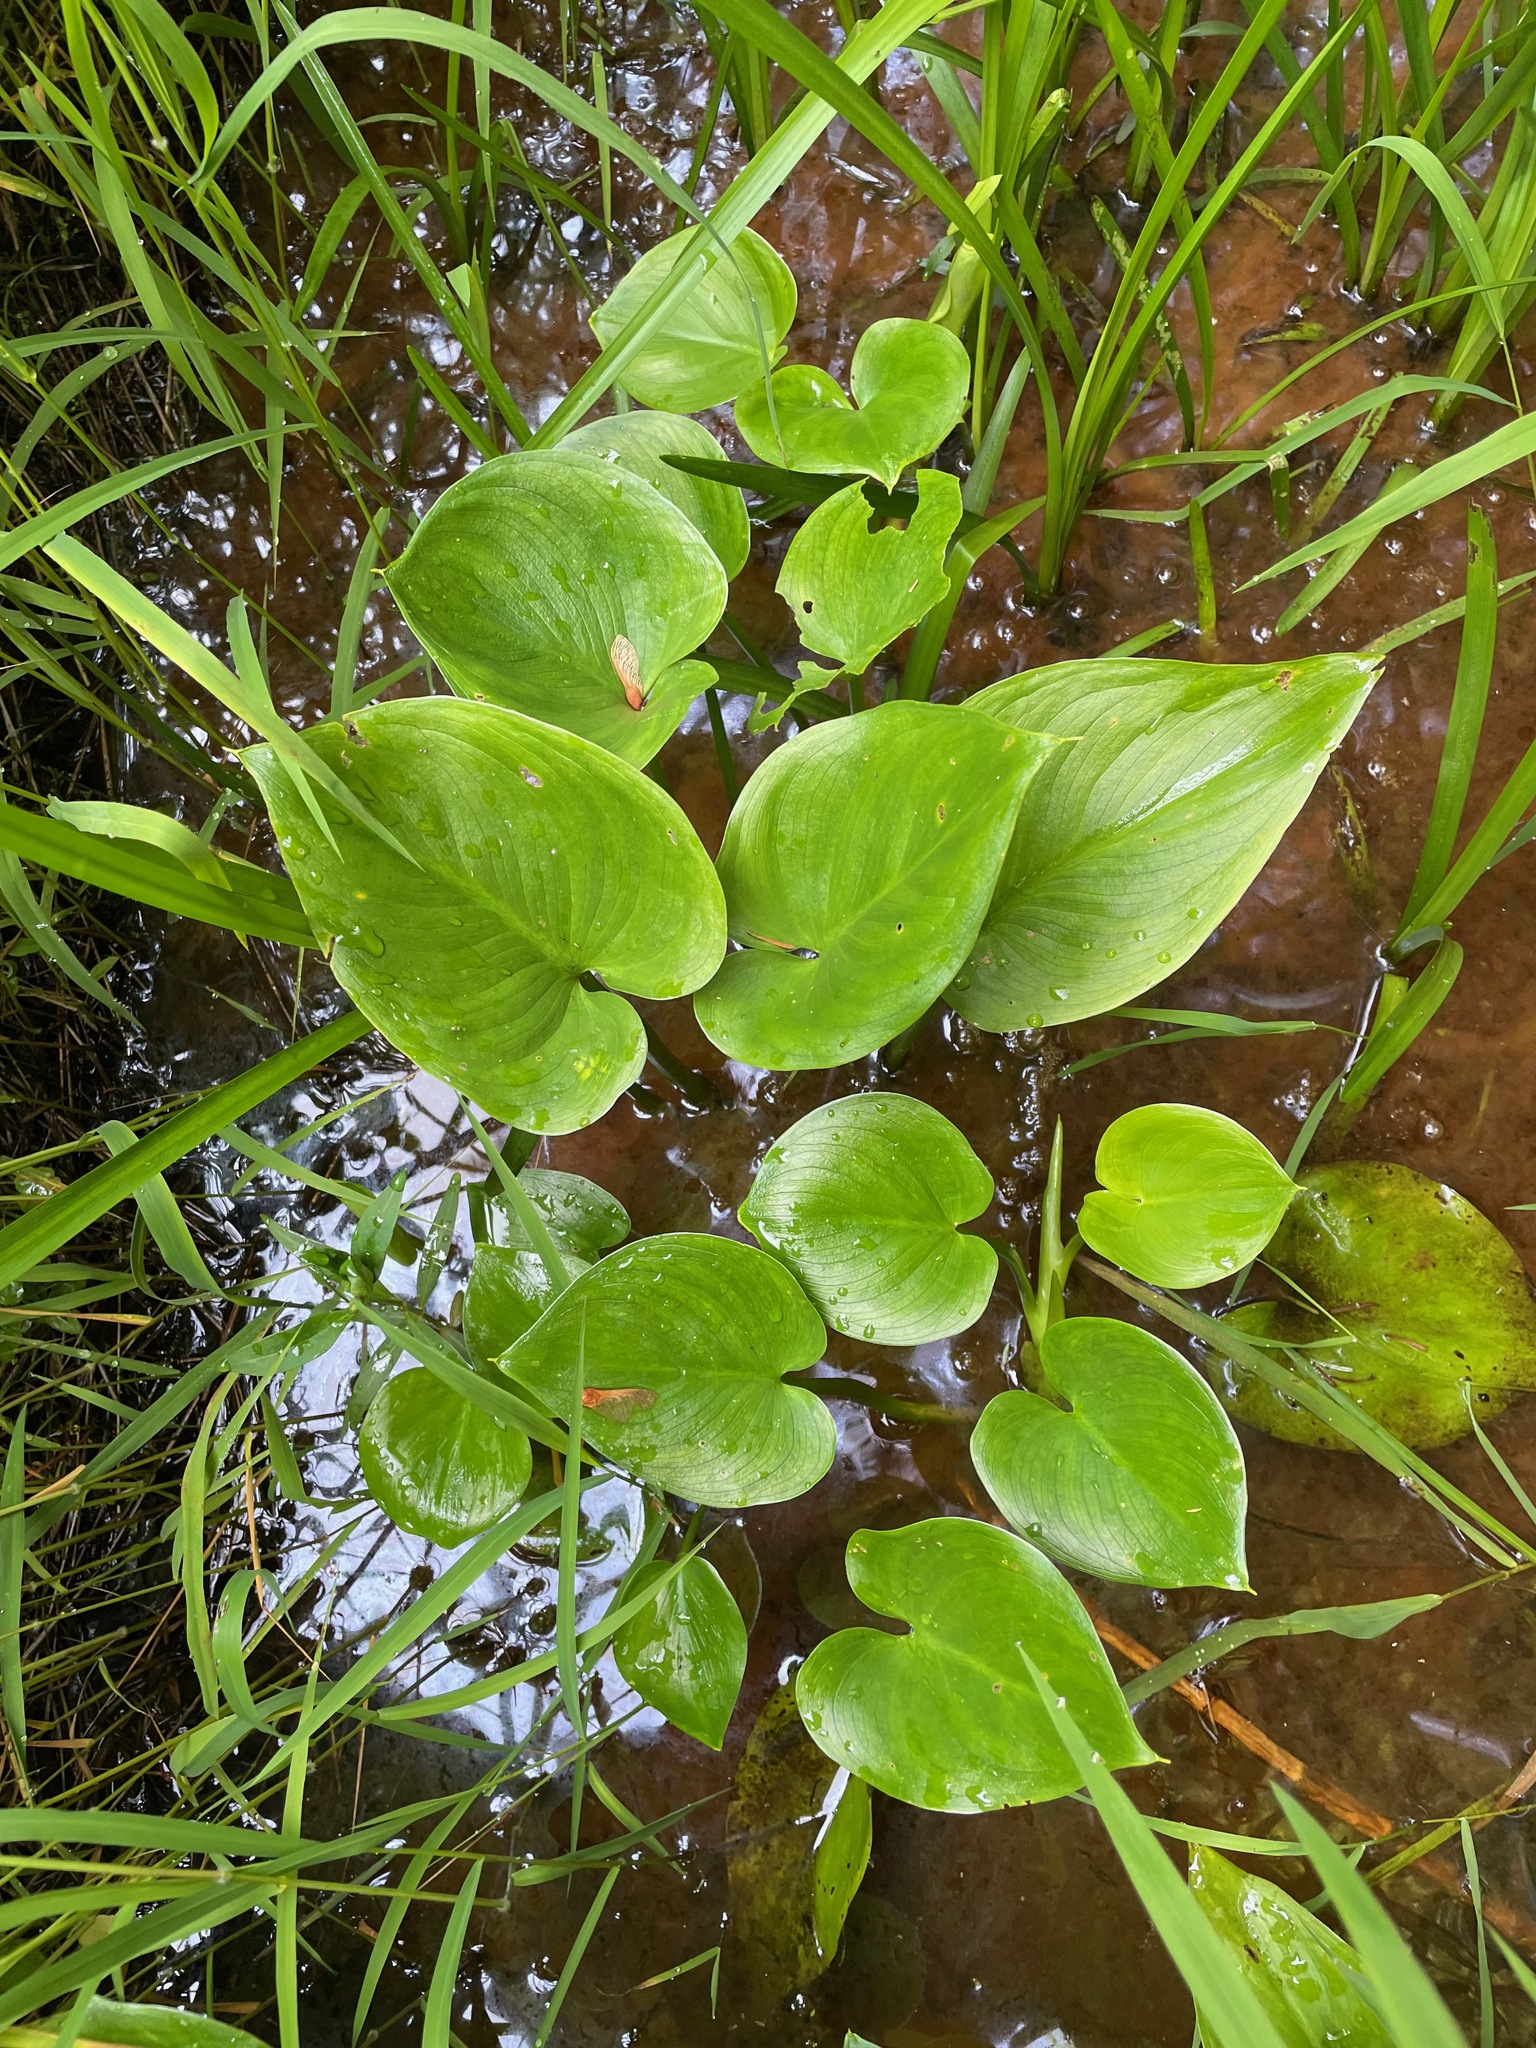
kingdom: Plantae
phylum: Tracheophyta
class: Liliopsida
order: Alismatales
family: Araceae
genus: Calla
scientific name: Calla palustris
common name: Bog arum
